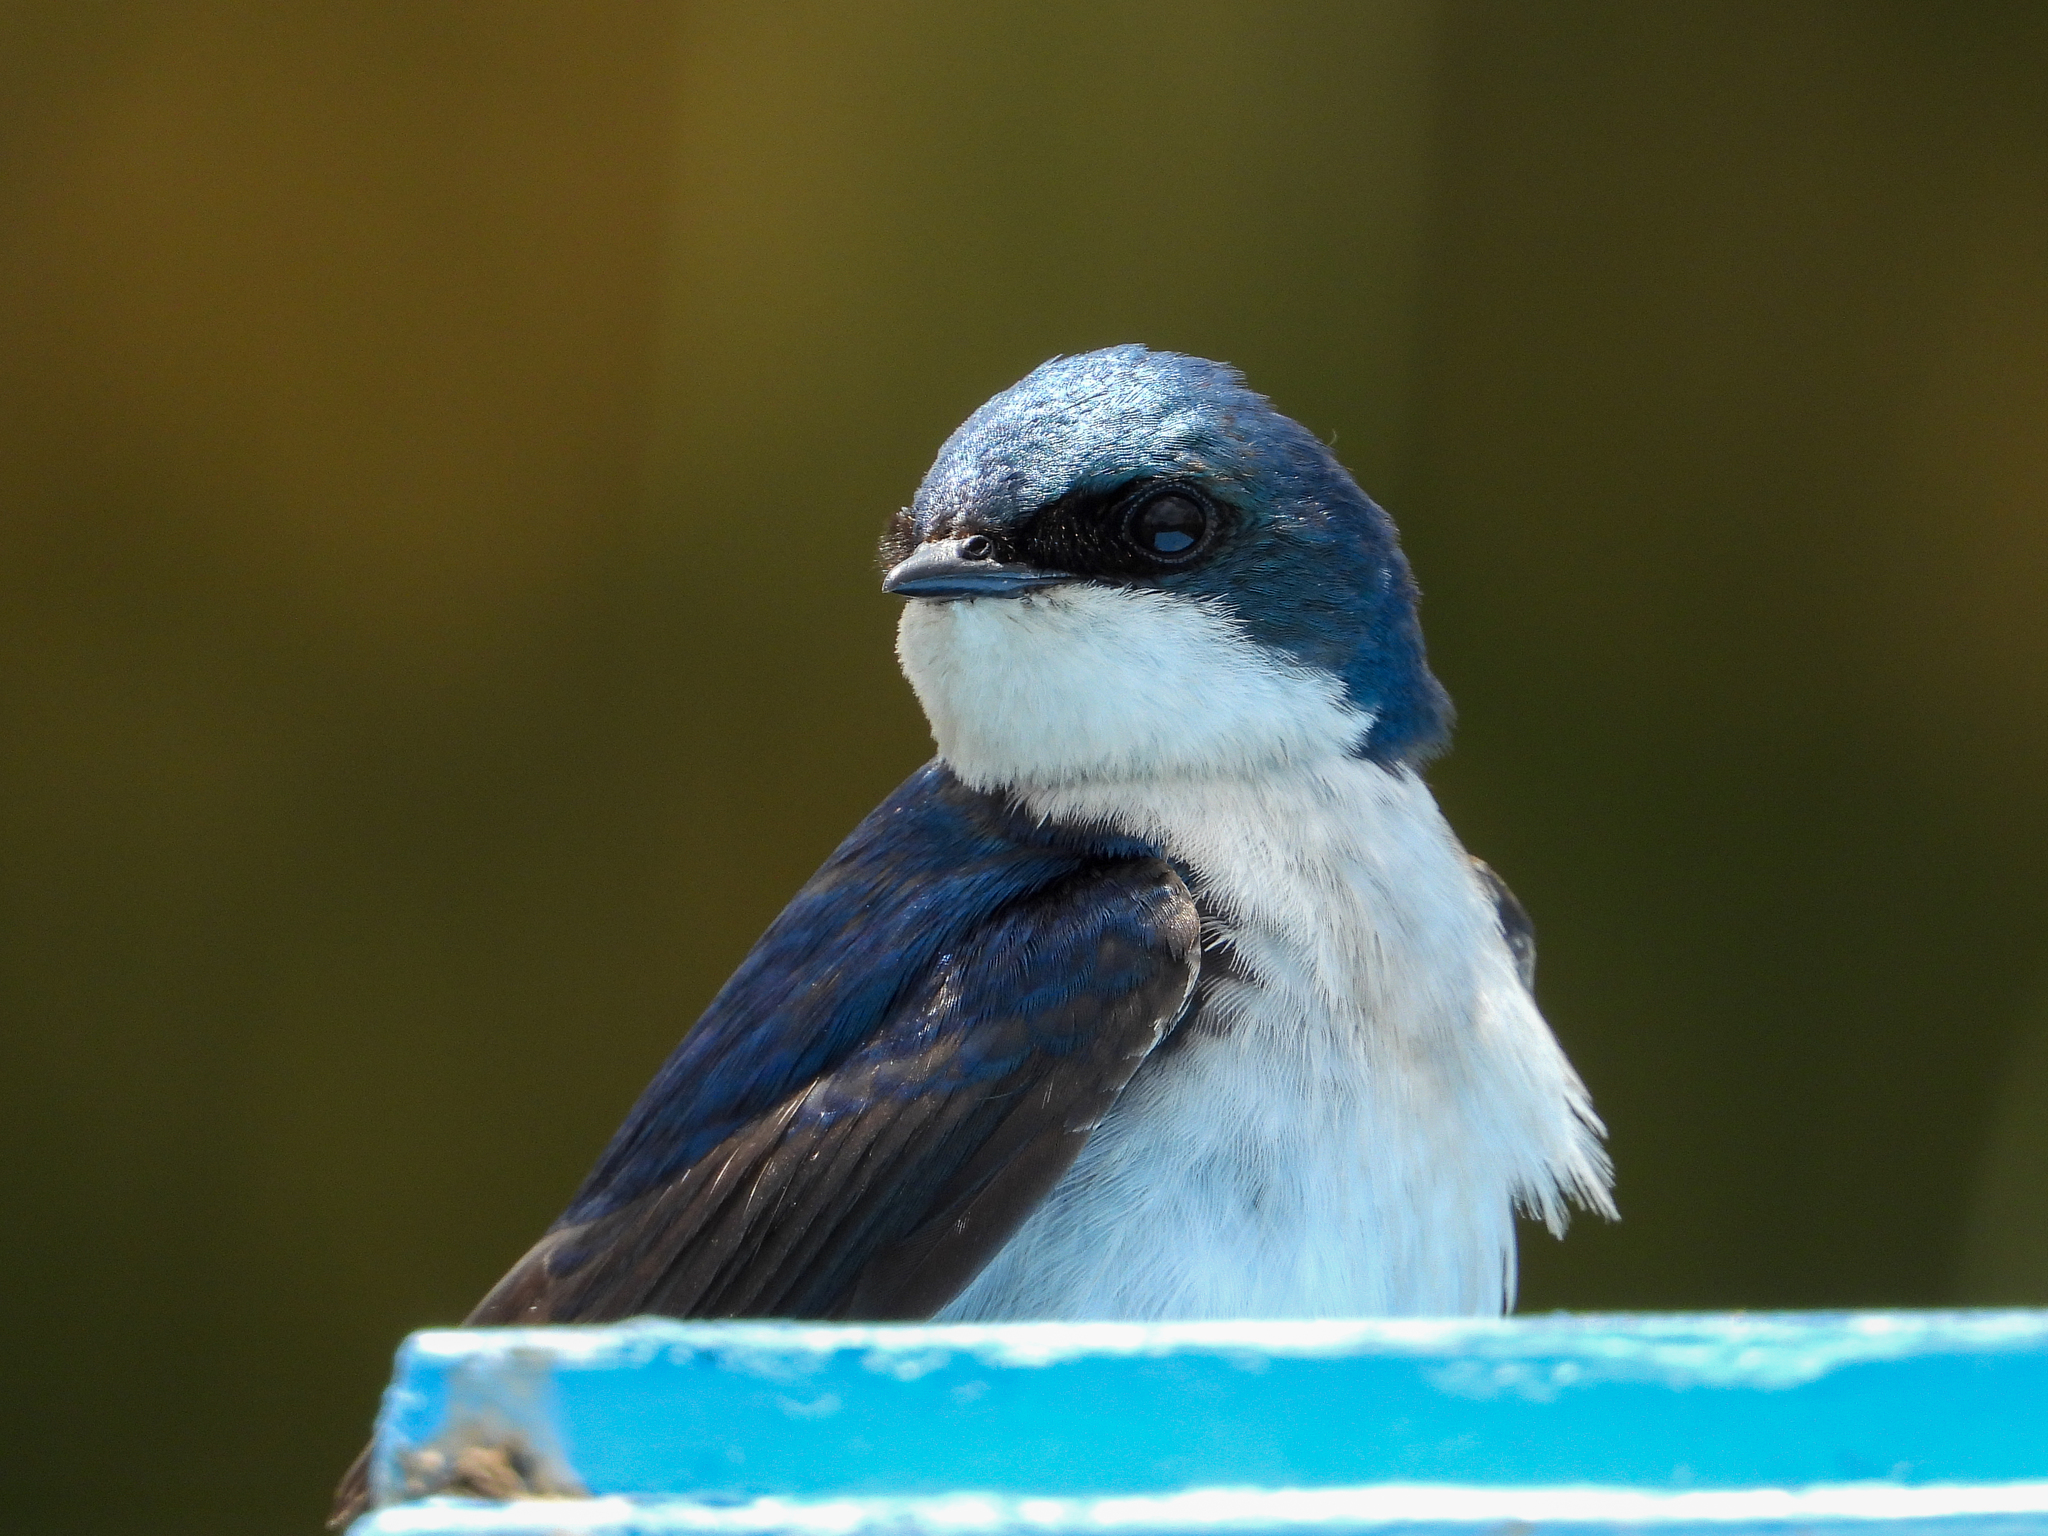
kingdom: Animalia
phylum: Chordata
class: Aves
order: Passeriformes
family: Hirundinidae
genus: Tachycineta
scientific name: Tachycineta bicolor
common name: Tree swallow
